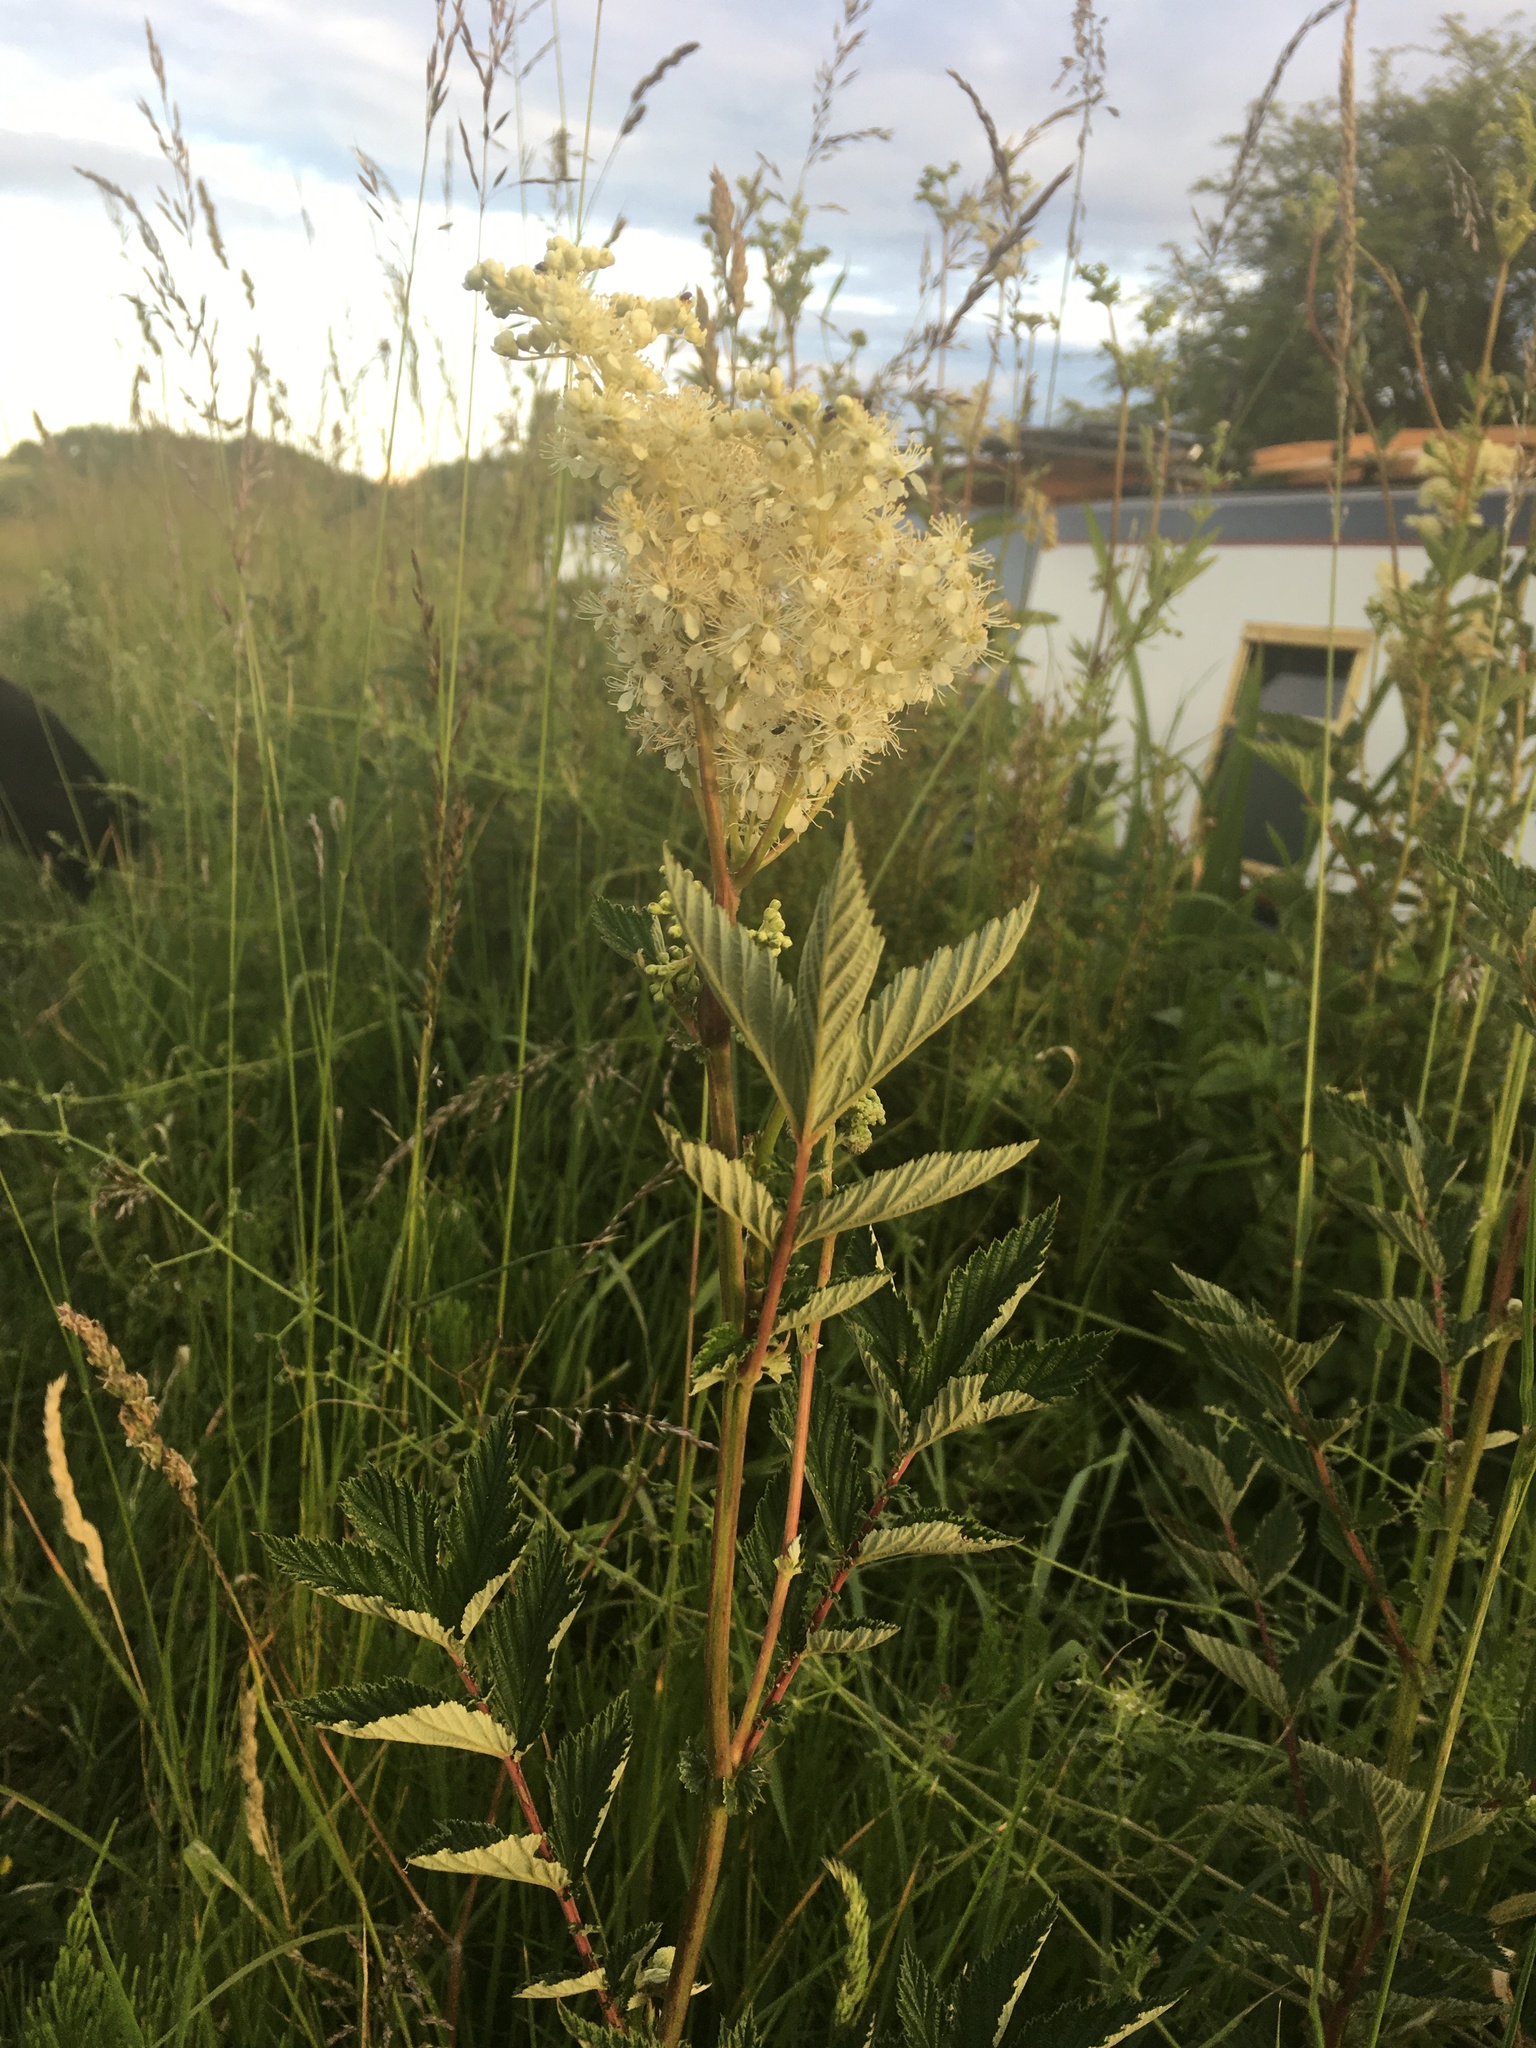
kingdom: Plantae
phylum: Tracheophyta
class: Magnoliopsida
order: Rosales
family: Rosaceae
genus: Filipendula
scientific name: Filipendula ulmaria
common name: Meadowsweet
